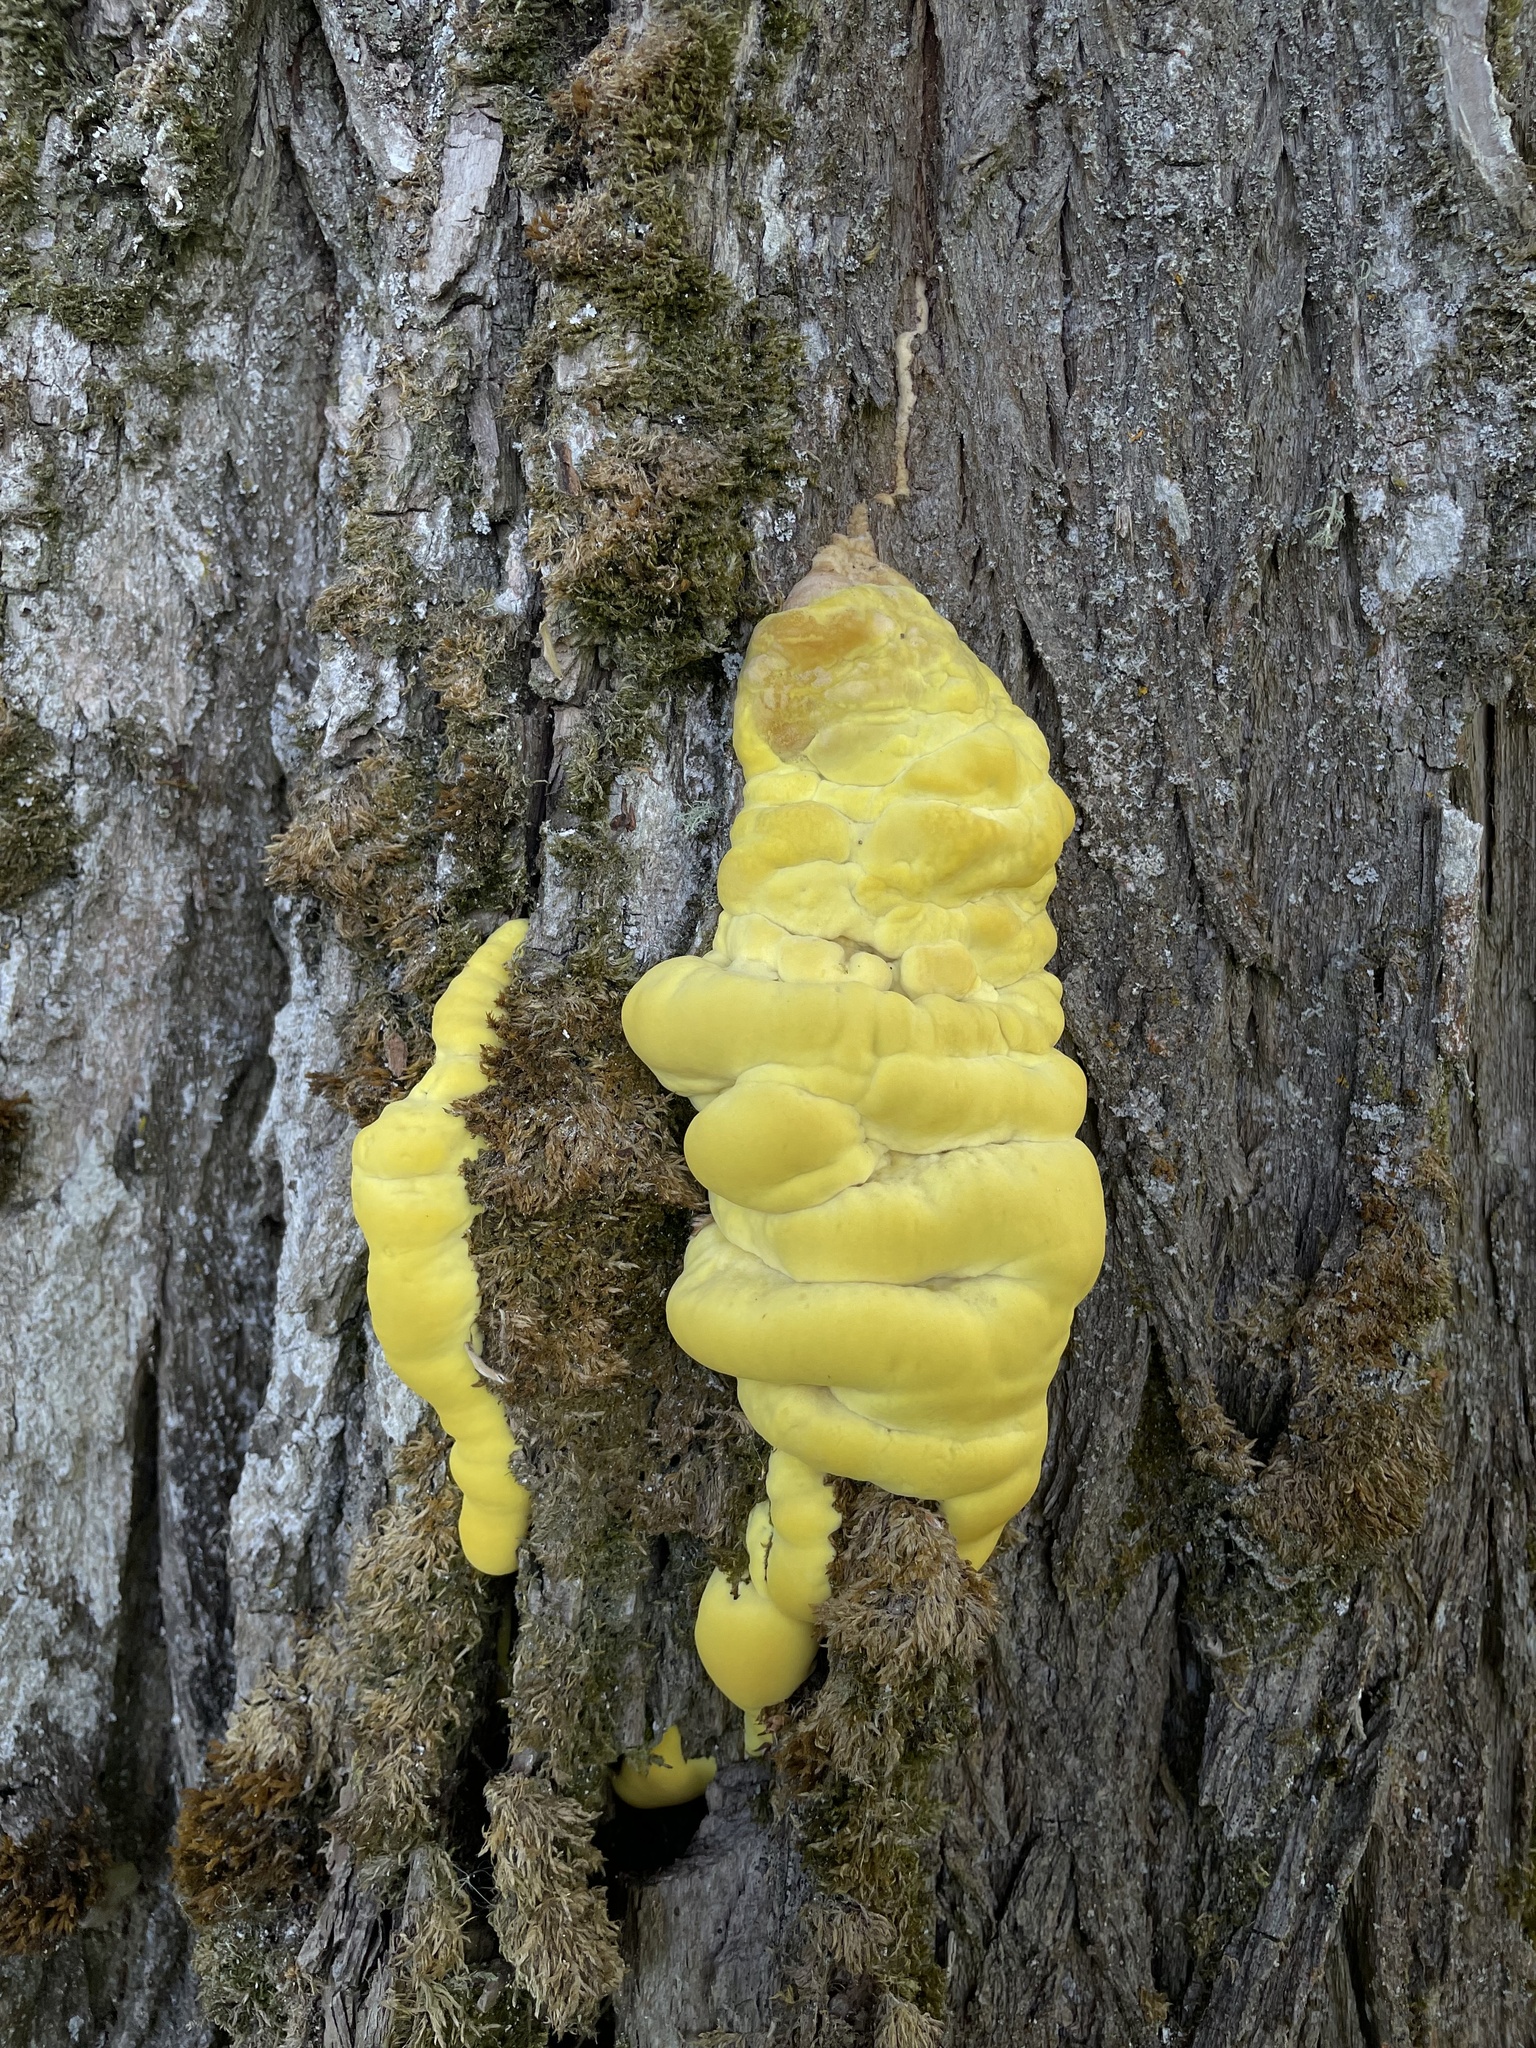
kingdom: Fungi
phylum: Basidiomycota
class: Agaricomycetes
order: Polyporales
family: Laetiporaceae
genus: Laetiporus
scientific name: Laetiporus sulphureus
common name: Chicken of the woods
